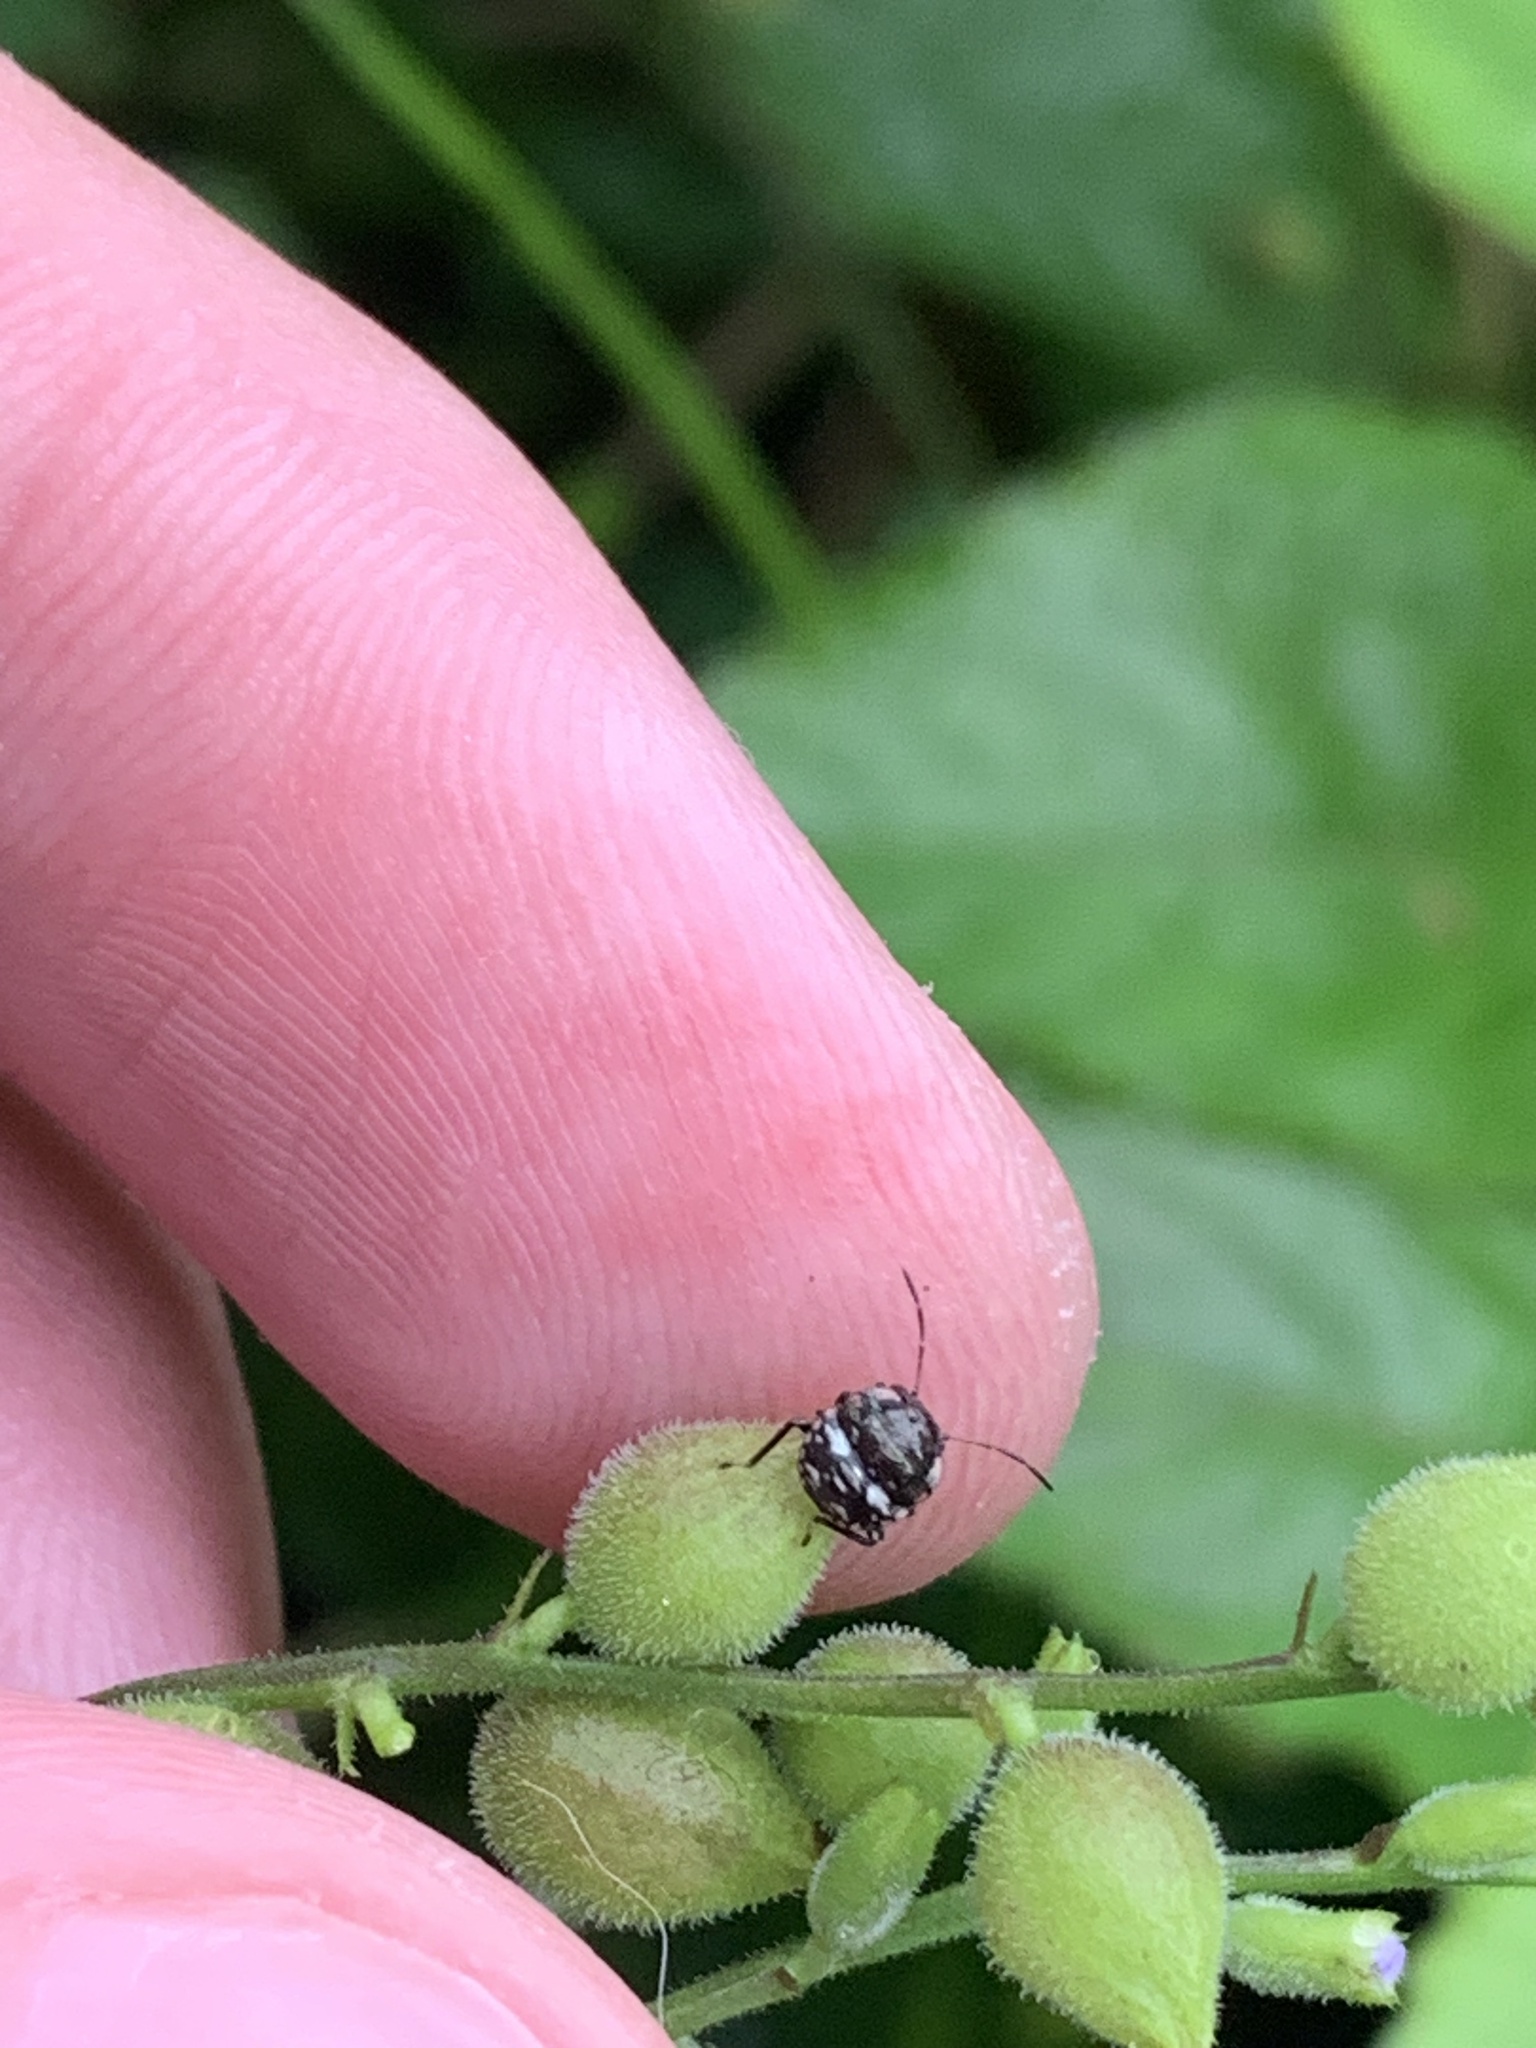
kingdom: Animalia
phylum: Arthropoda
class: Insecta
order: Hemiptera
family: Pentatomidae
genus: Nezara
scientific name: Nezara viridula
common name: Southern green stink bug
